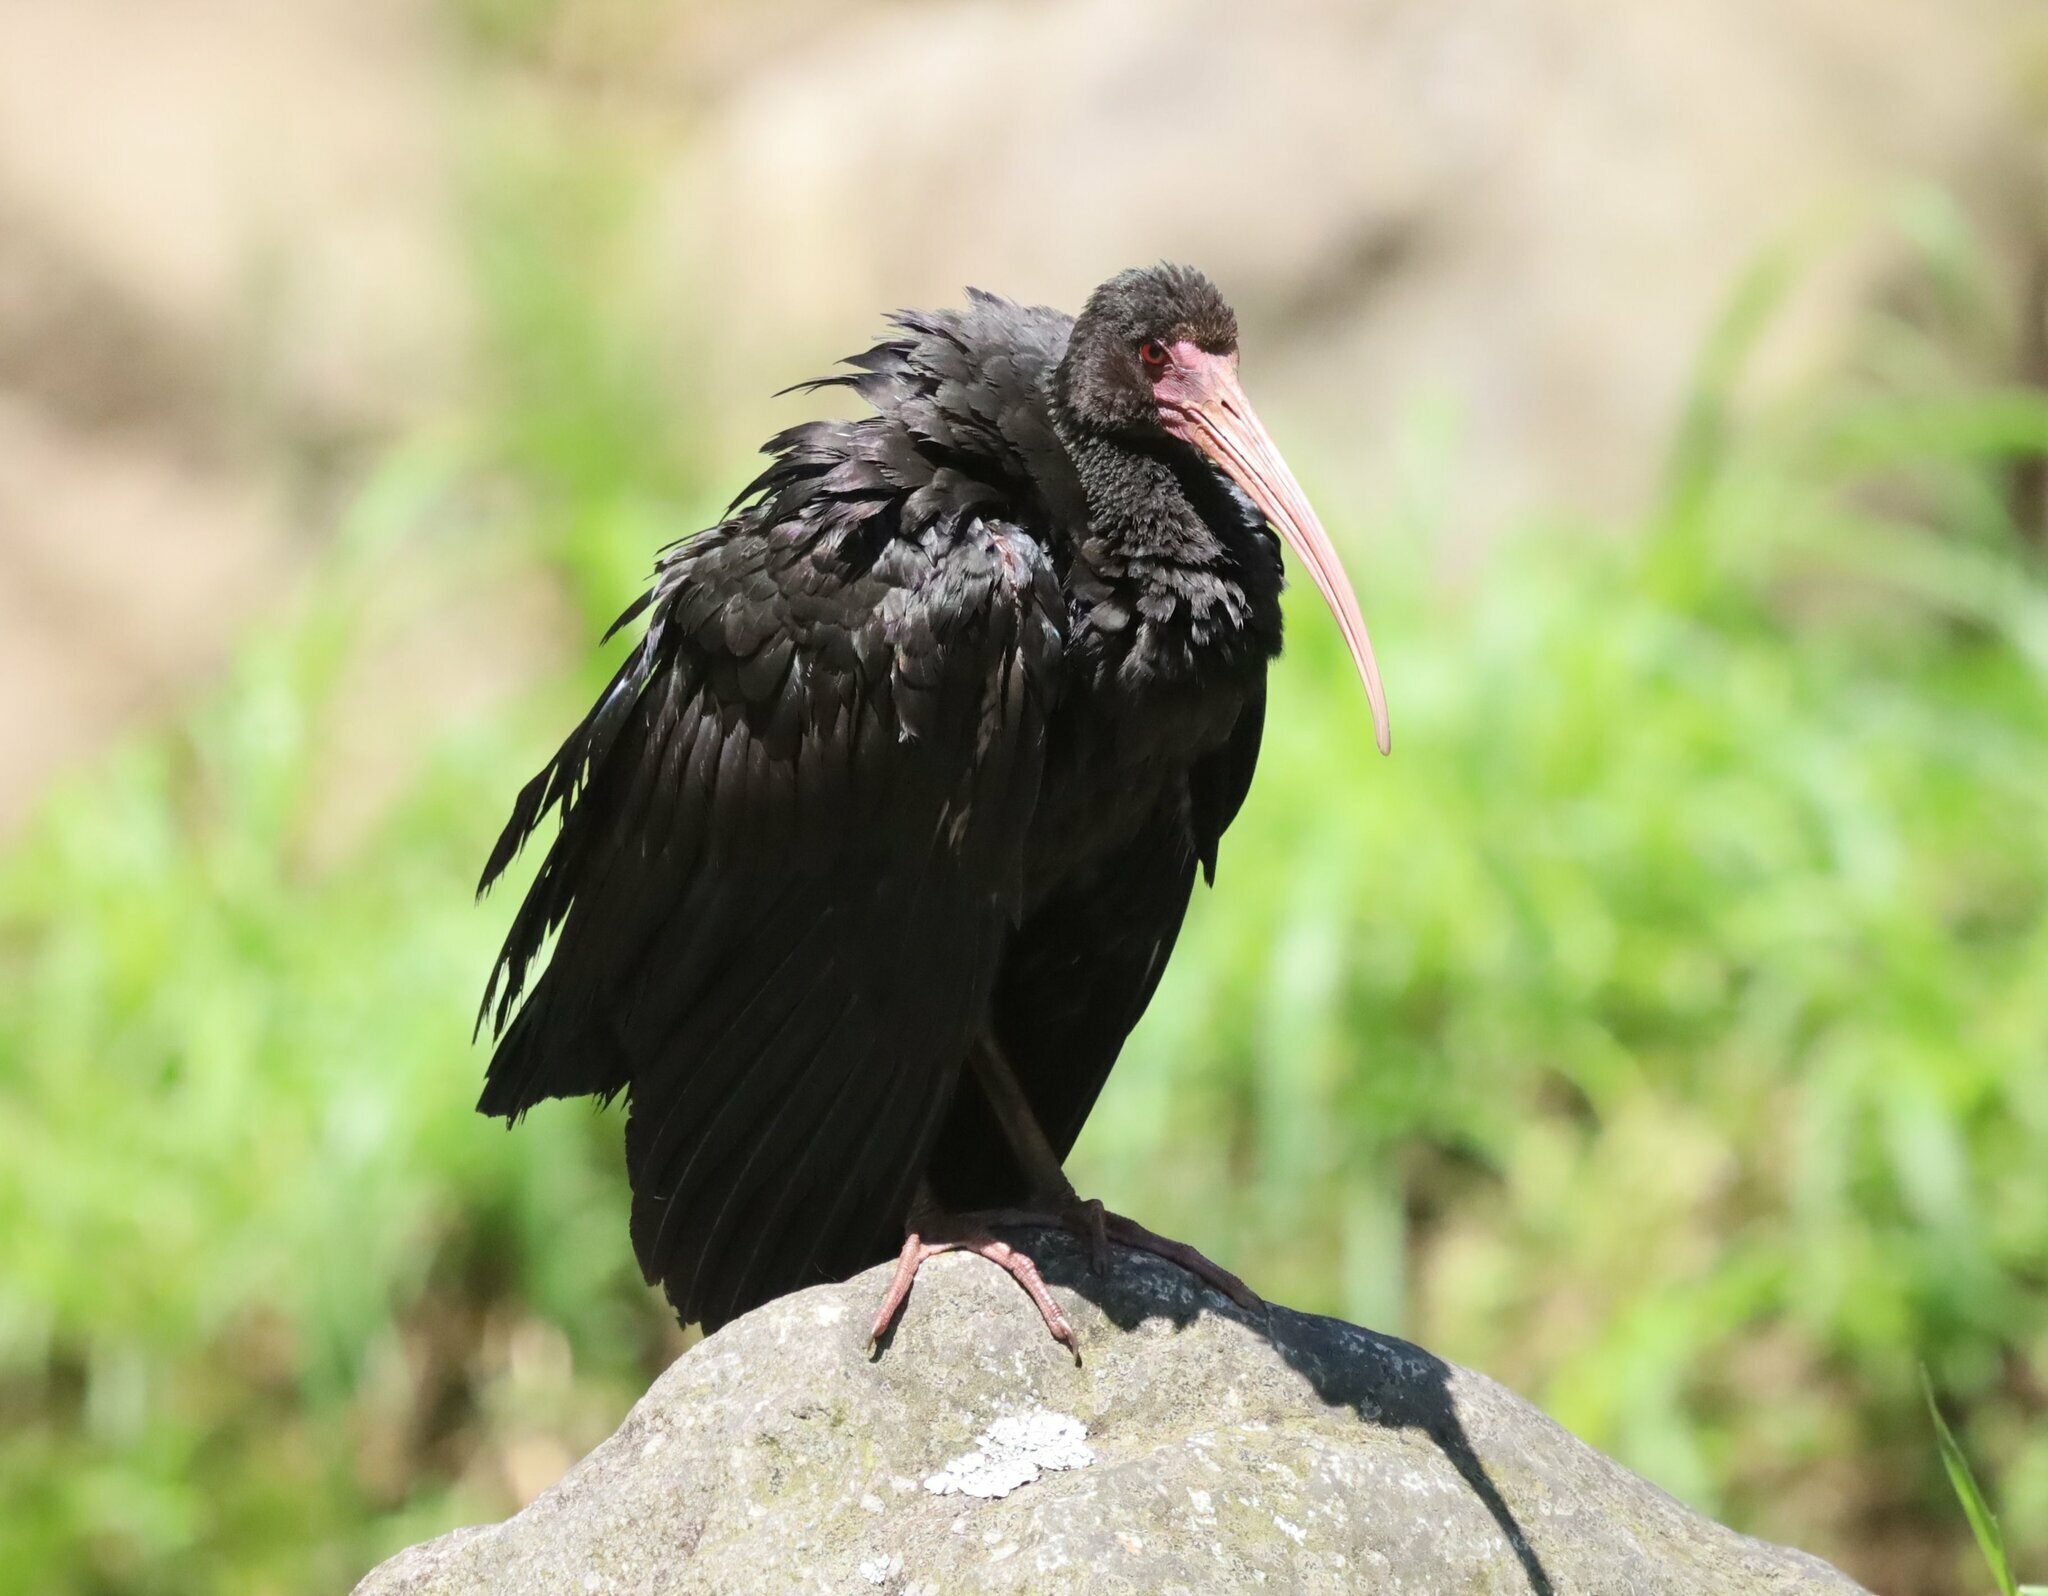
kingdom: Animalia
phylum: Chordata
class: Aves
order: Pelecaniformes
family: Threskiornithidae
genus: Phimosus
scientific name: Phimosus infuscatus
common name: Bare-faced ibis
